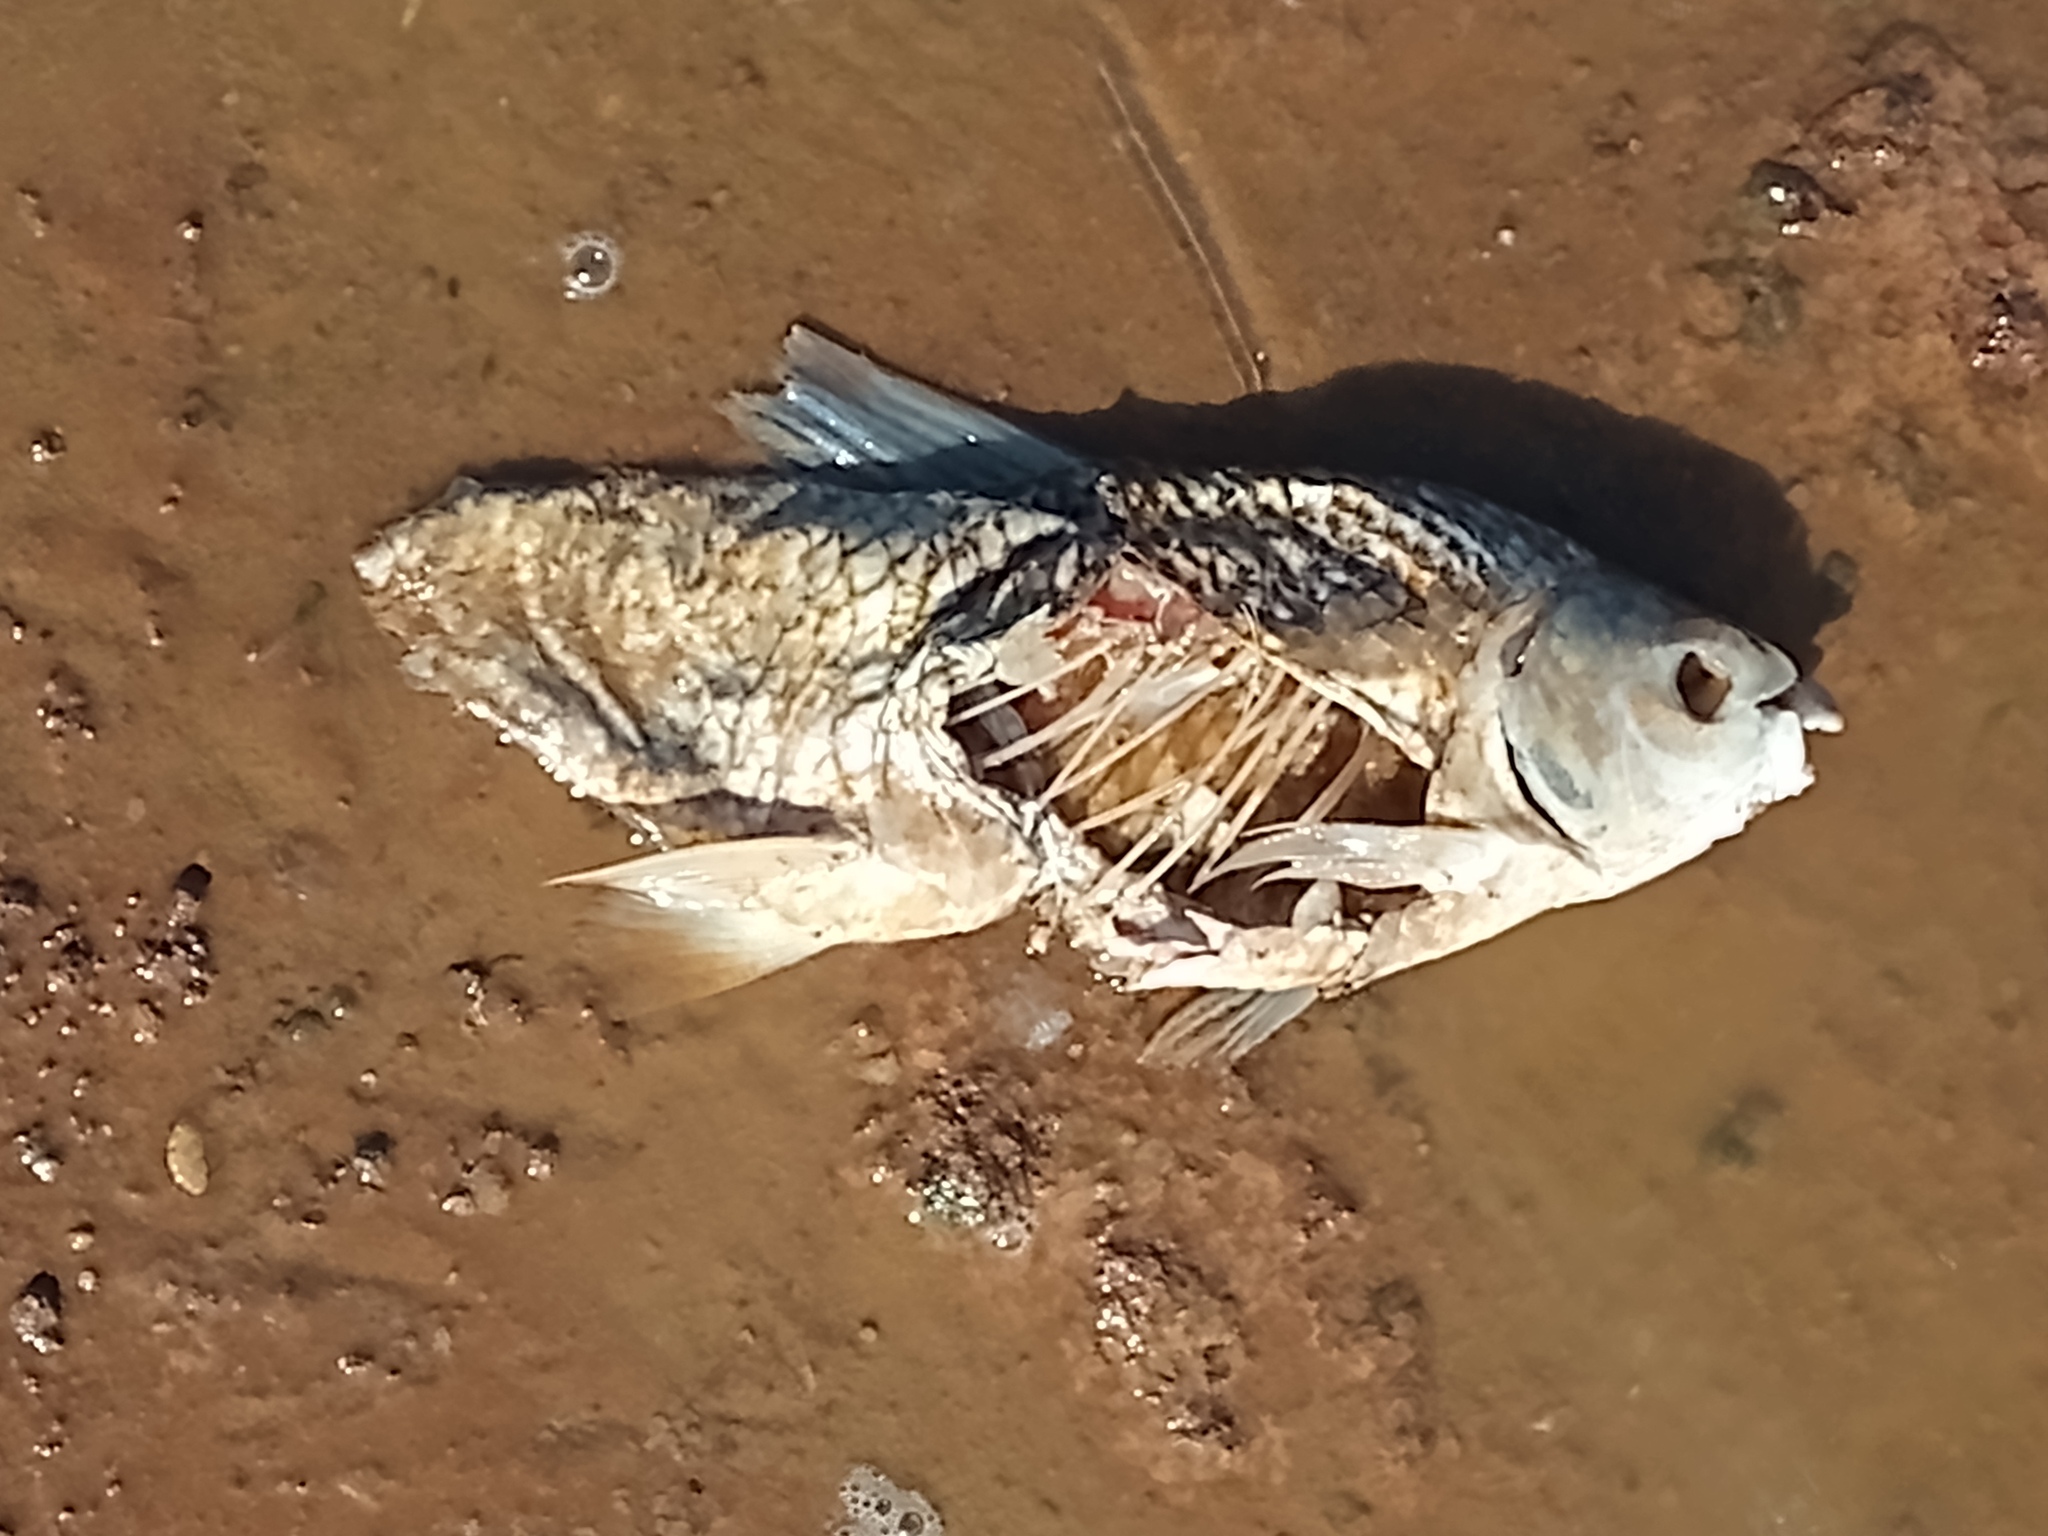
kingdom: Animalia
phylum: Chordata
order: Characiformes
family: Prochilodontidae
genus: Prochilodus
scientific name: Prochilodus lineatus
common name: Curimbata
